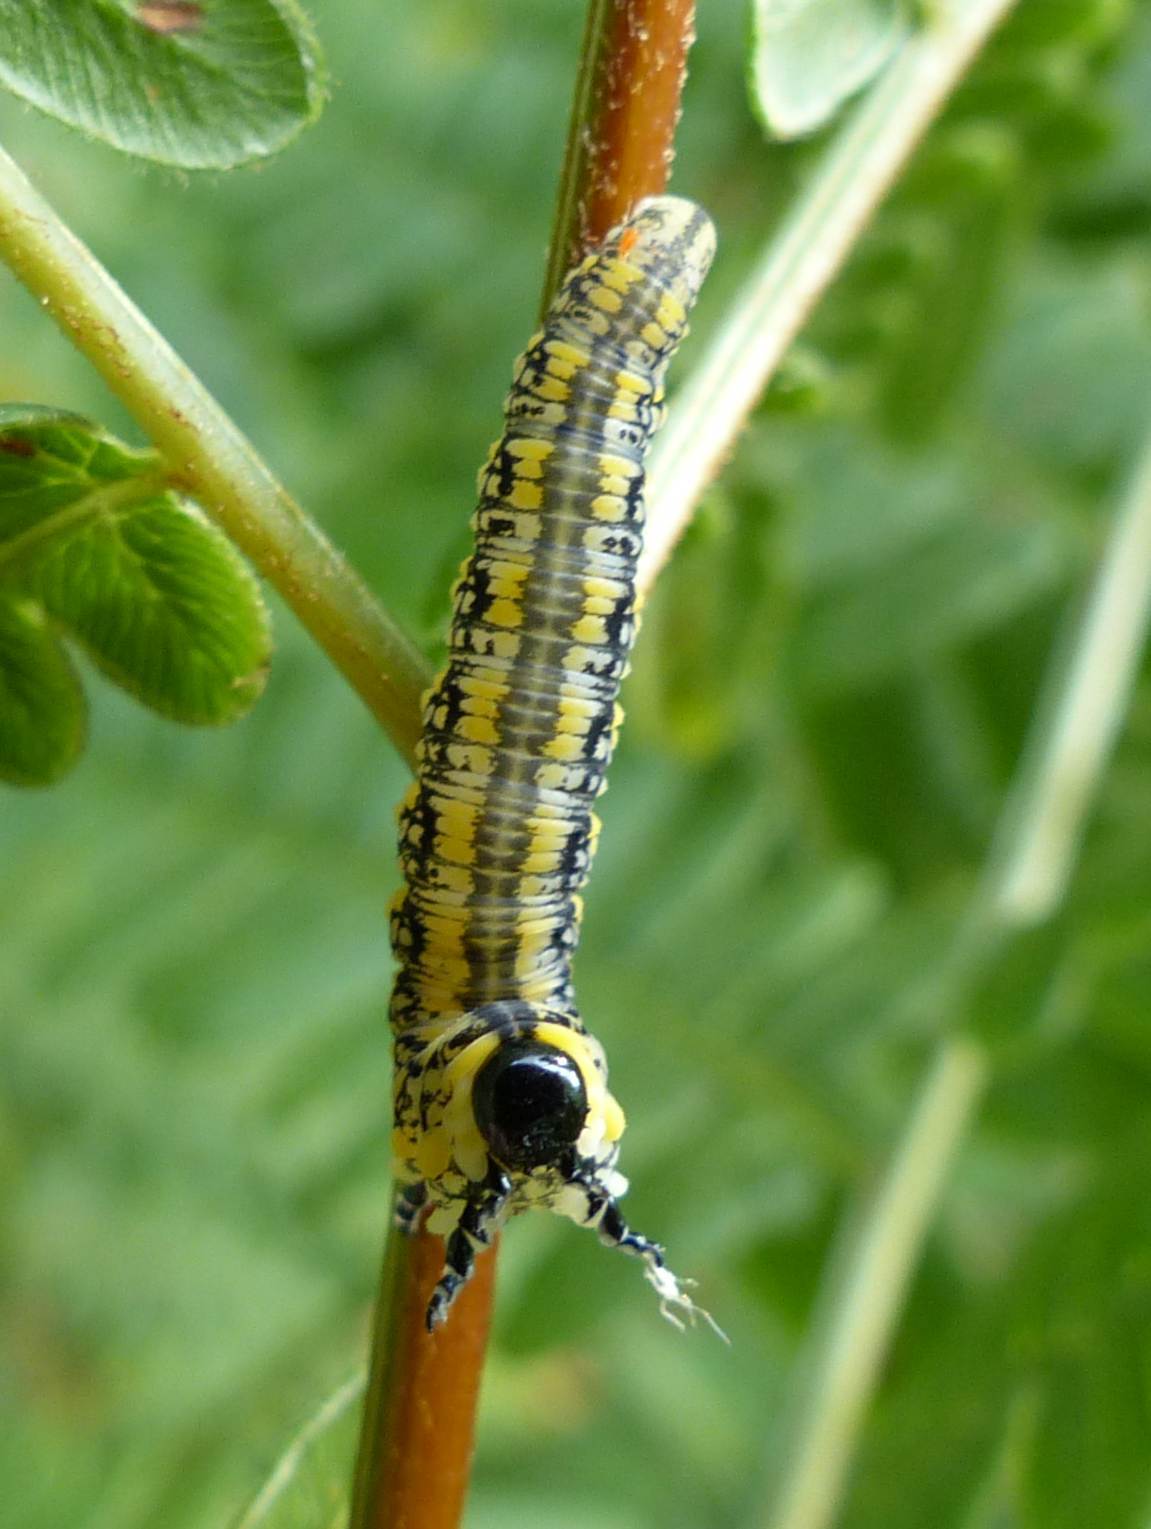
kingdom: Animalia
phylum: Arthropoda
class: Insecta
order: Hymenoptera
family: Diprionidae
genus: Diprion
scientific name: Diprion similis
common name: Pine sawfly
